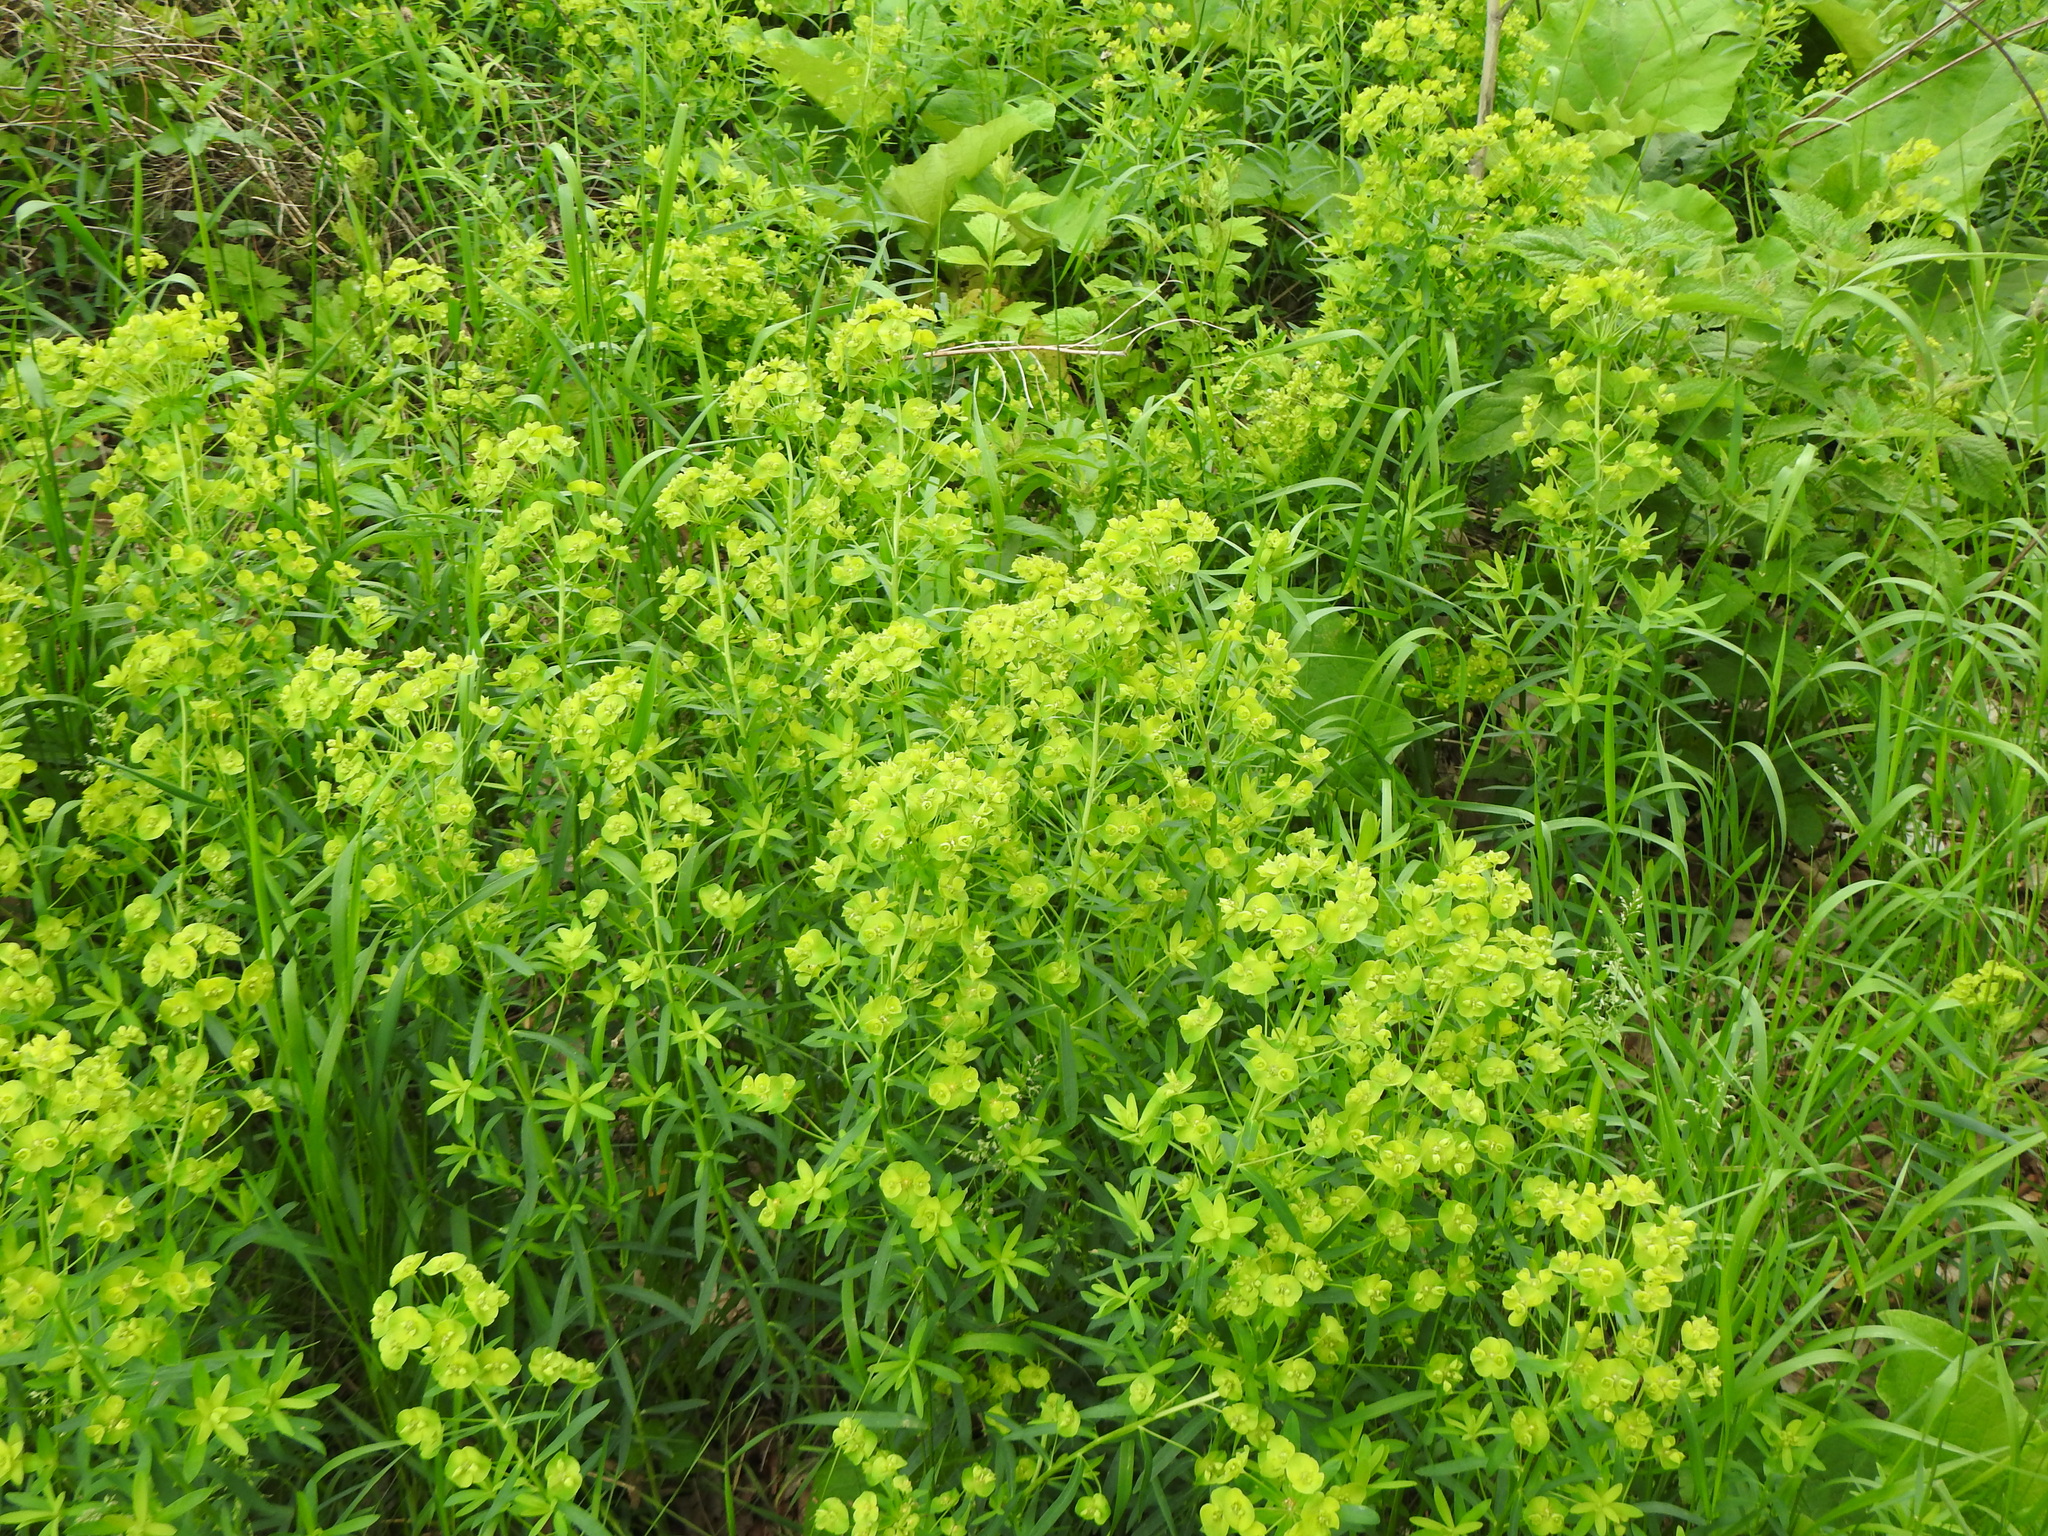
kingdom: Plantae
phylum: Tracheophyta
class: Magnoliopsida
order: Malpighiales
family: Euphorbiaceae
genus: Euphorbia
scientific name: Euphorbia virgata
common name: Leafy spurge
